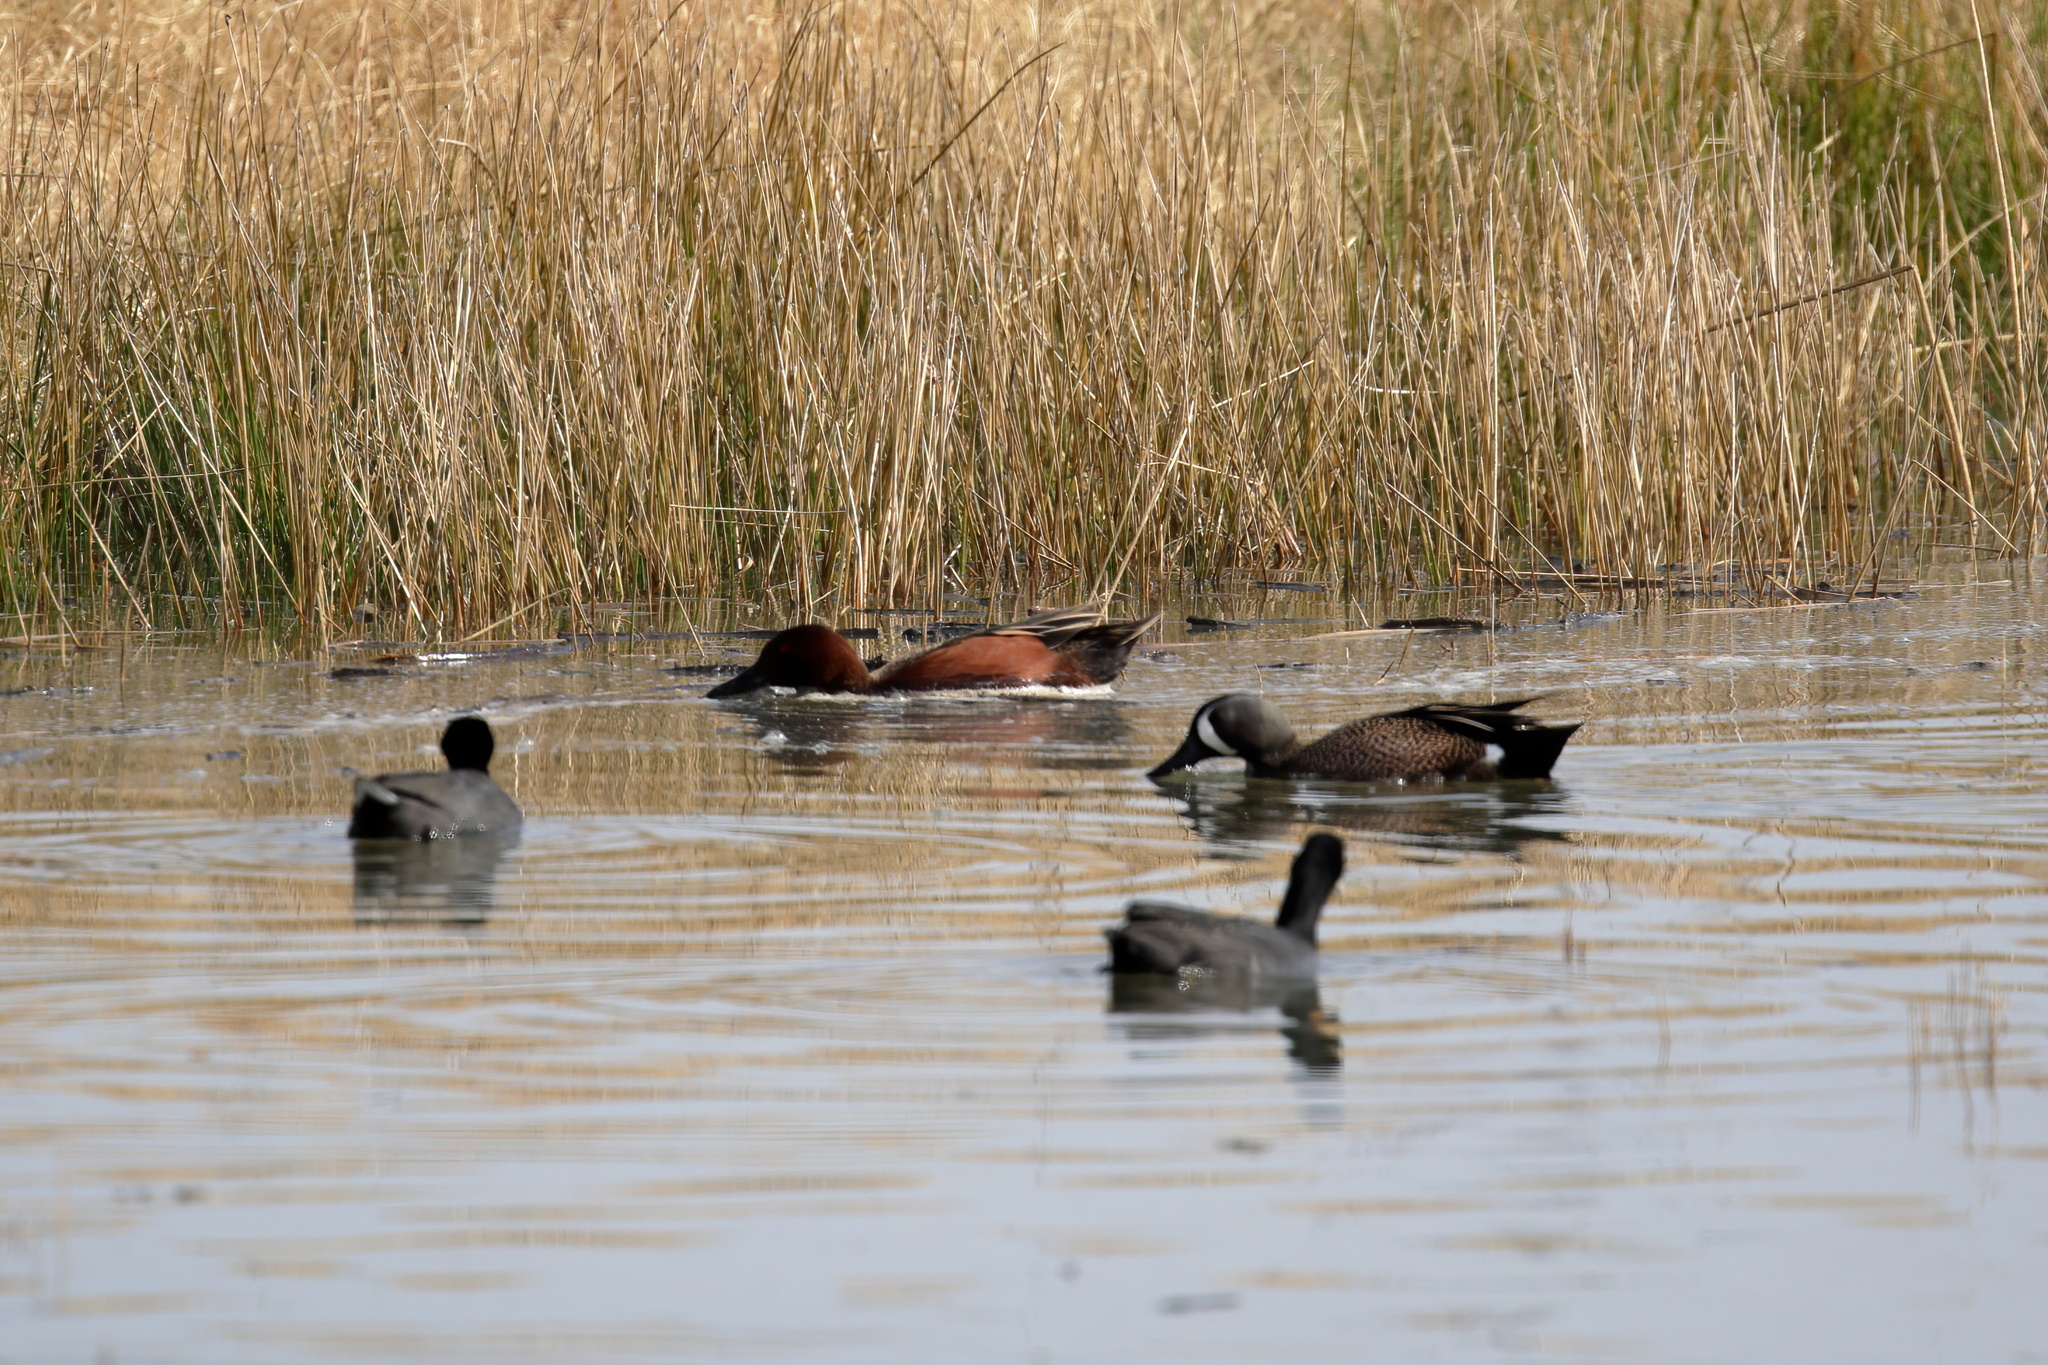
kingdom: Animalia
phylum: Chordata
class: Aves
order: Anseriformes
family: Anatidae
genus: Spatula
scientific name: Spatula cyanoptera
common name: Cinnamon teal
